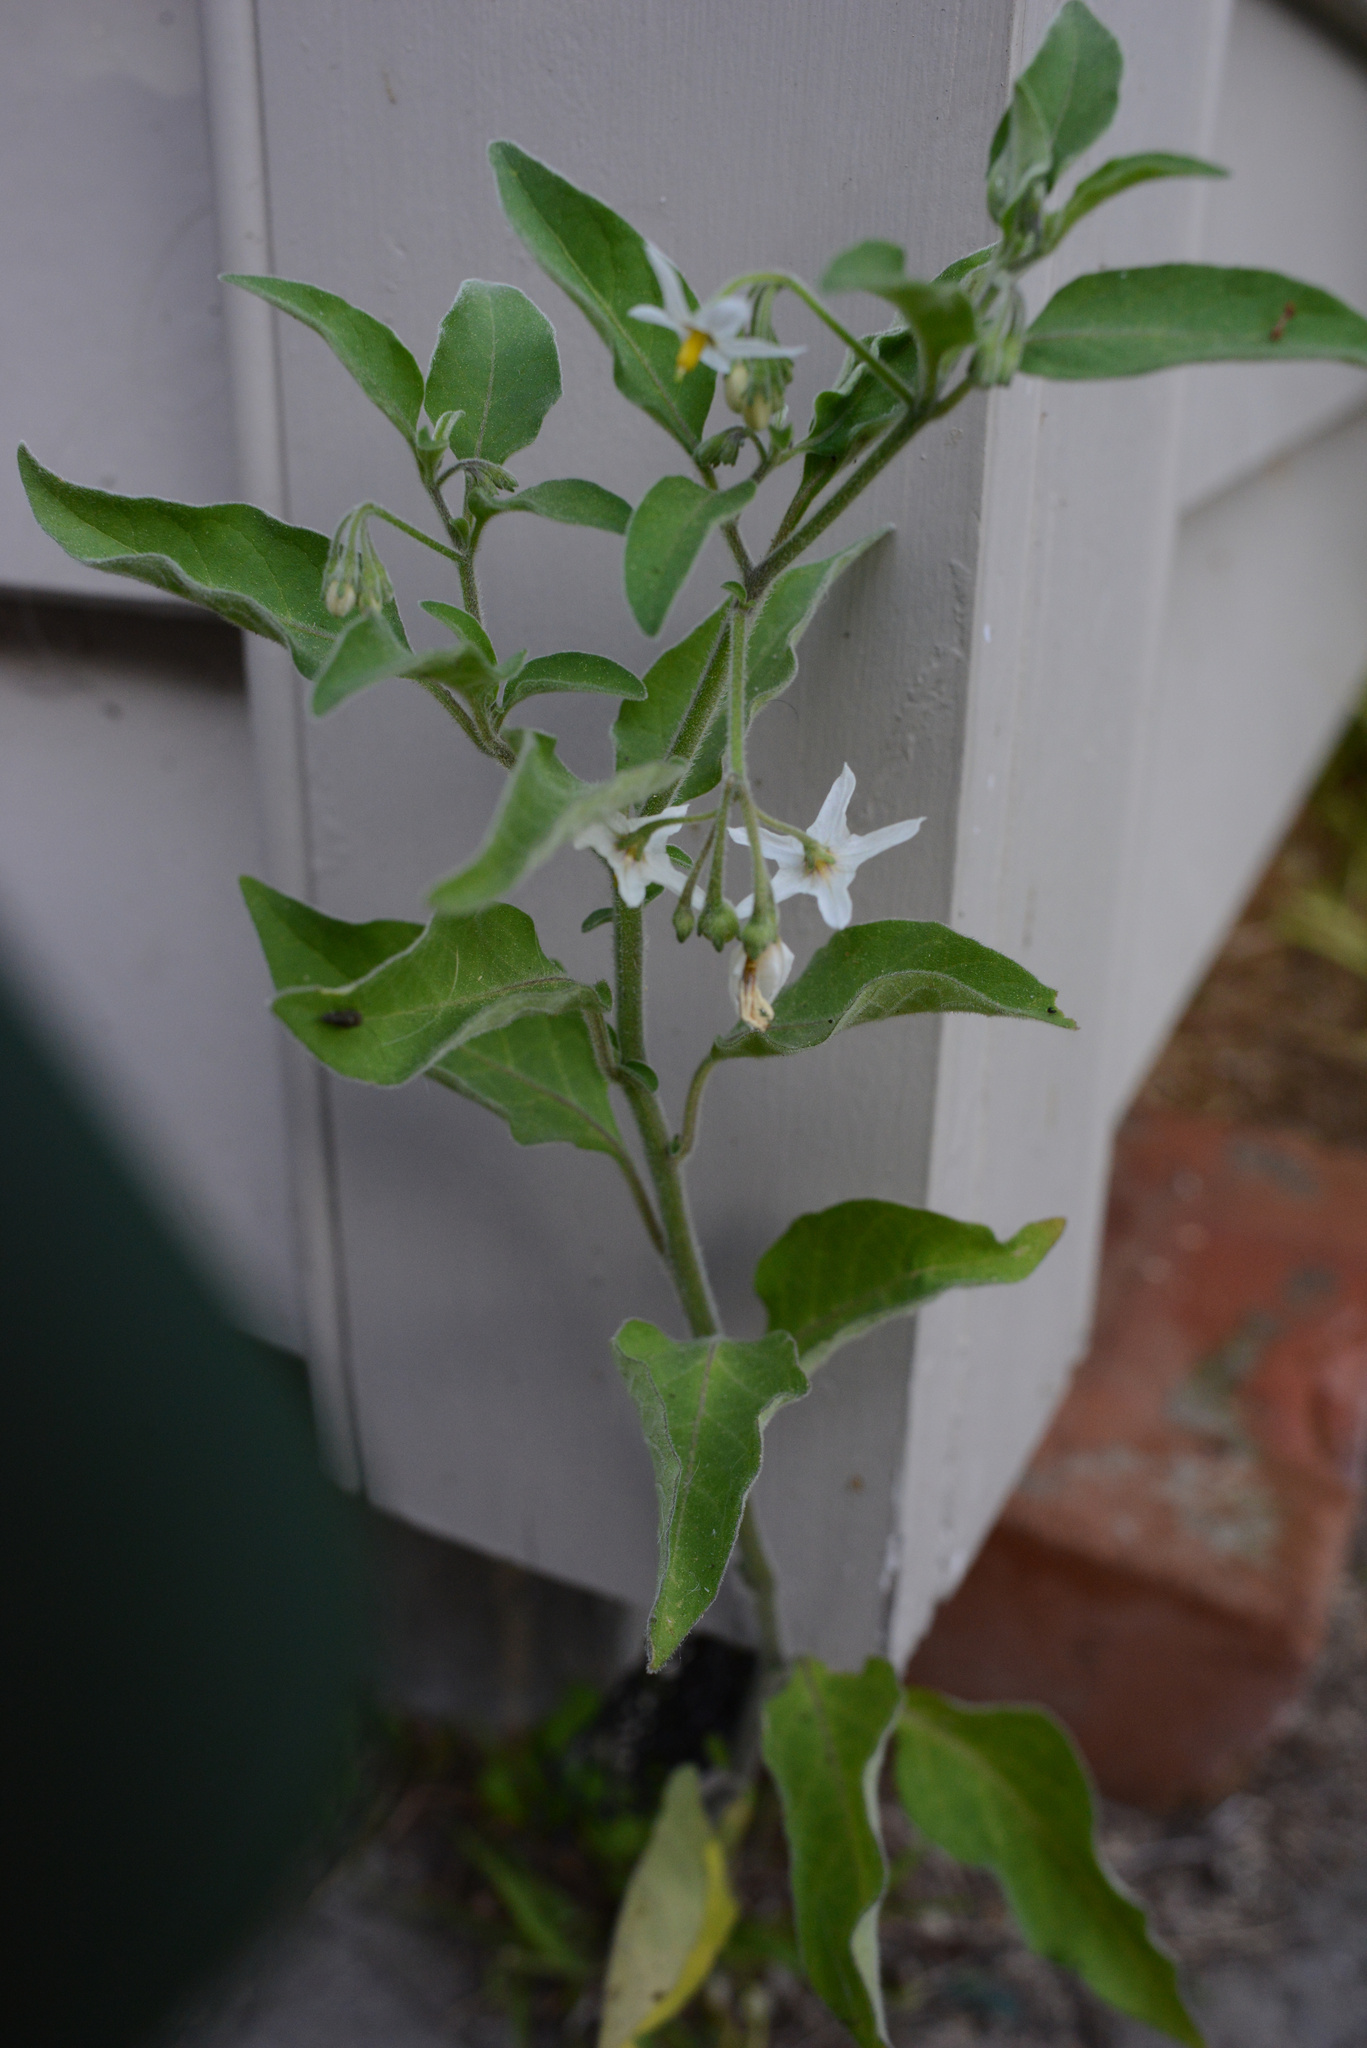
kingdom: Plantae
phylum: Tracheophyta
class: Magnoliopsida
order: Solanales
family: Solanaceae
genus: Solanum
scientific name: Solanum chenopodioides
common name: Tall nightshade
